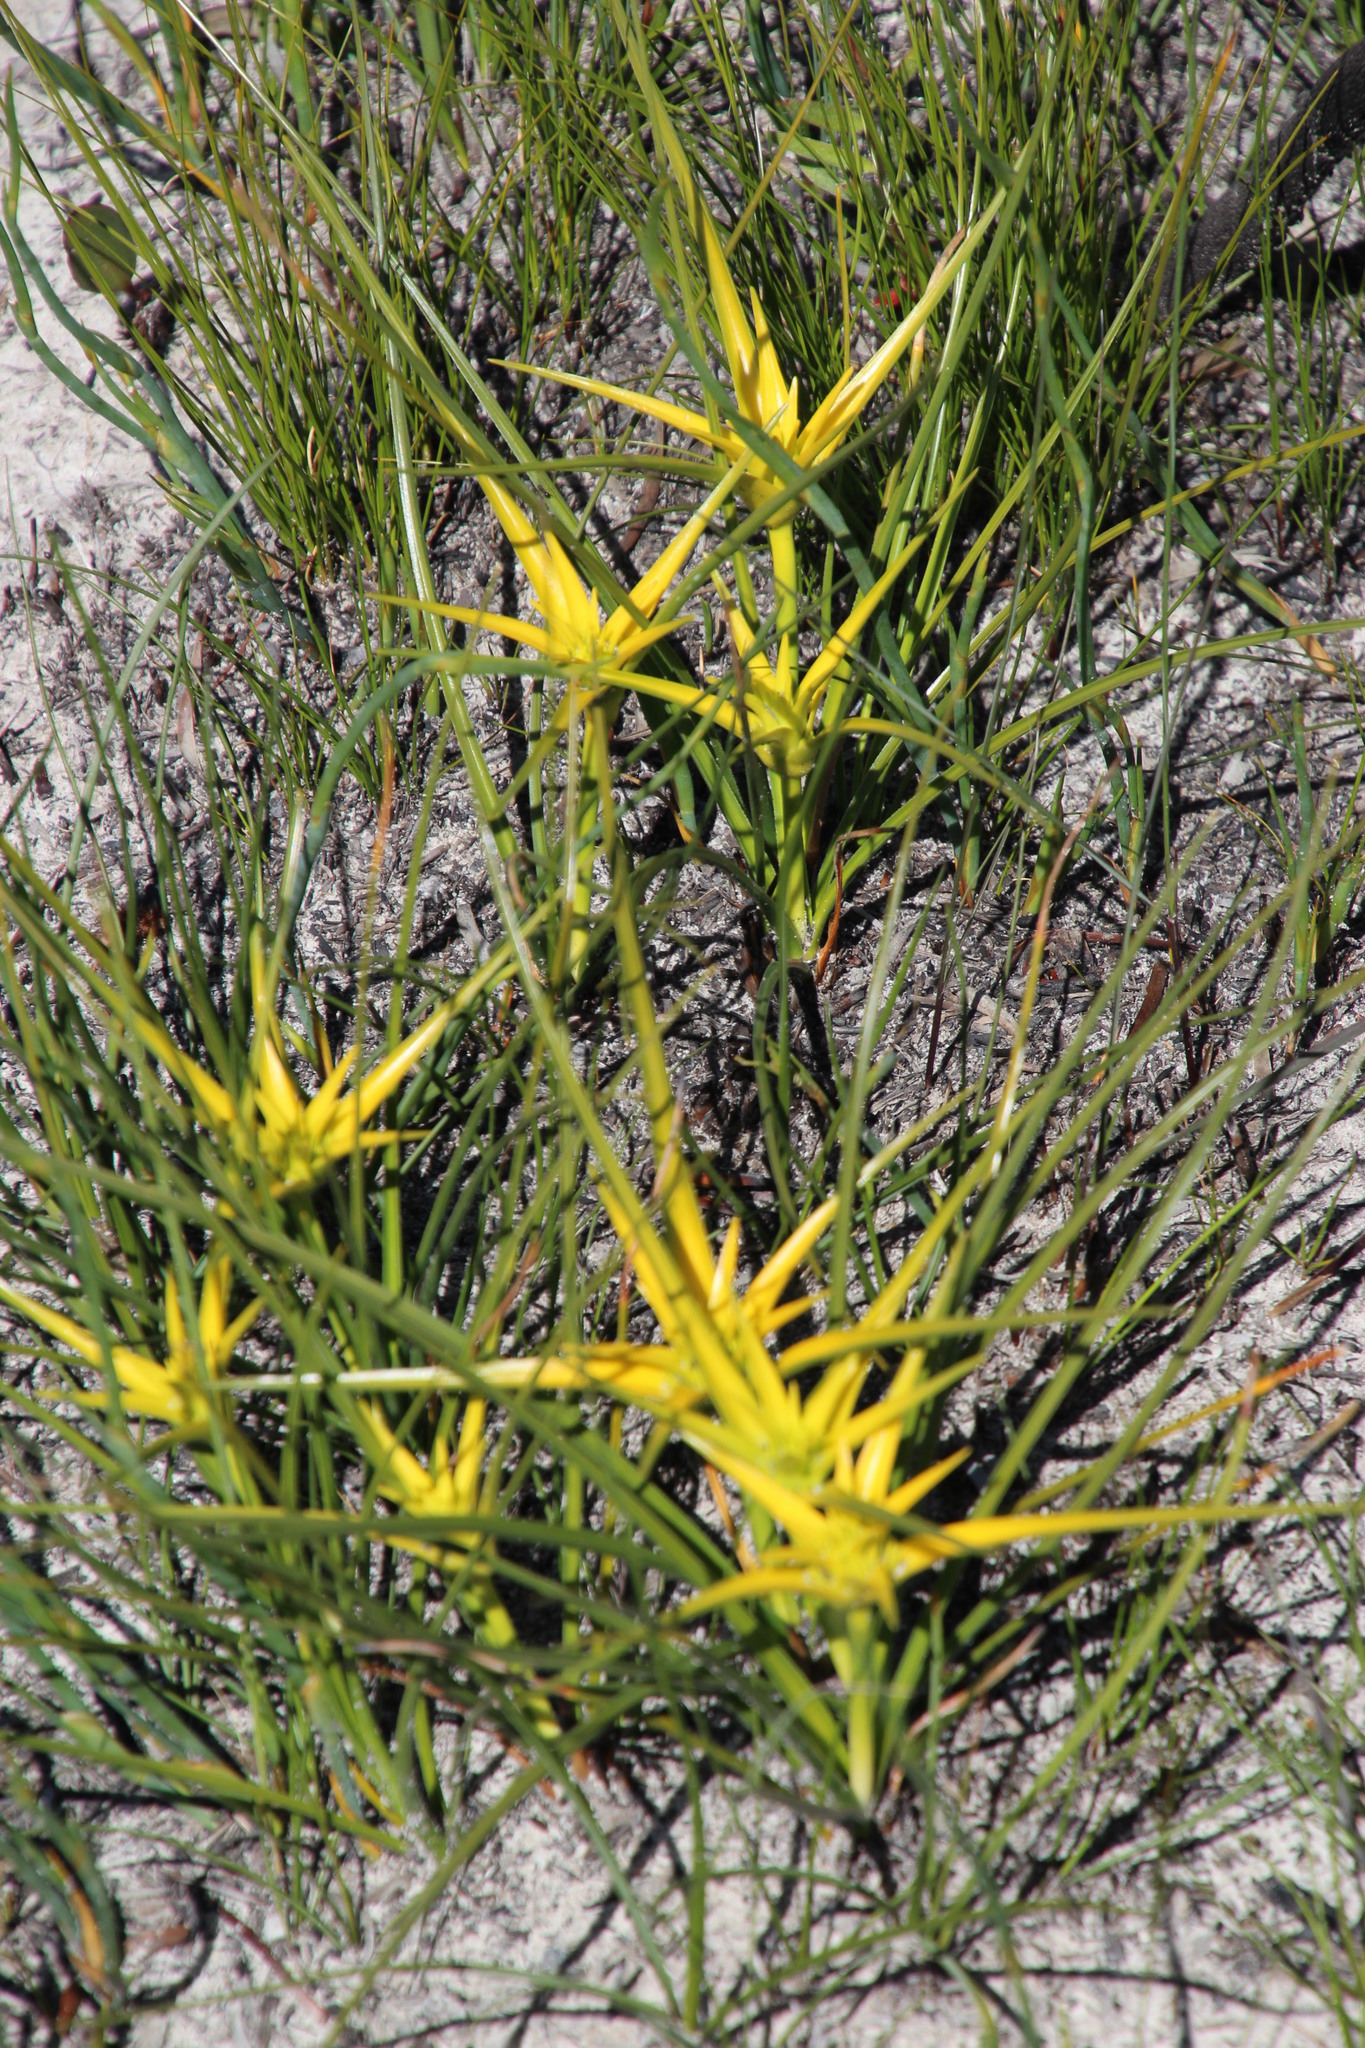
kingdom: Plantae
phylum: Tracheophyta
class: Liliopsida
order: Poales
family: Cyperaceae
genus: Ficinia
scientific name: Ficinia radiata
